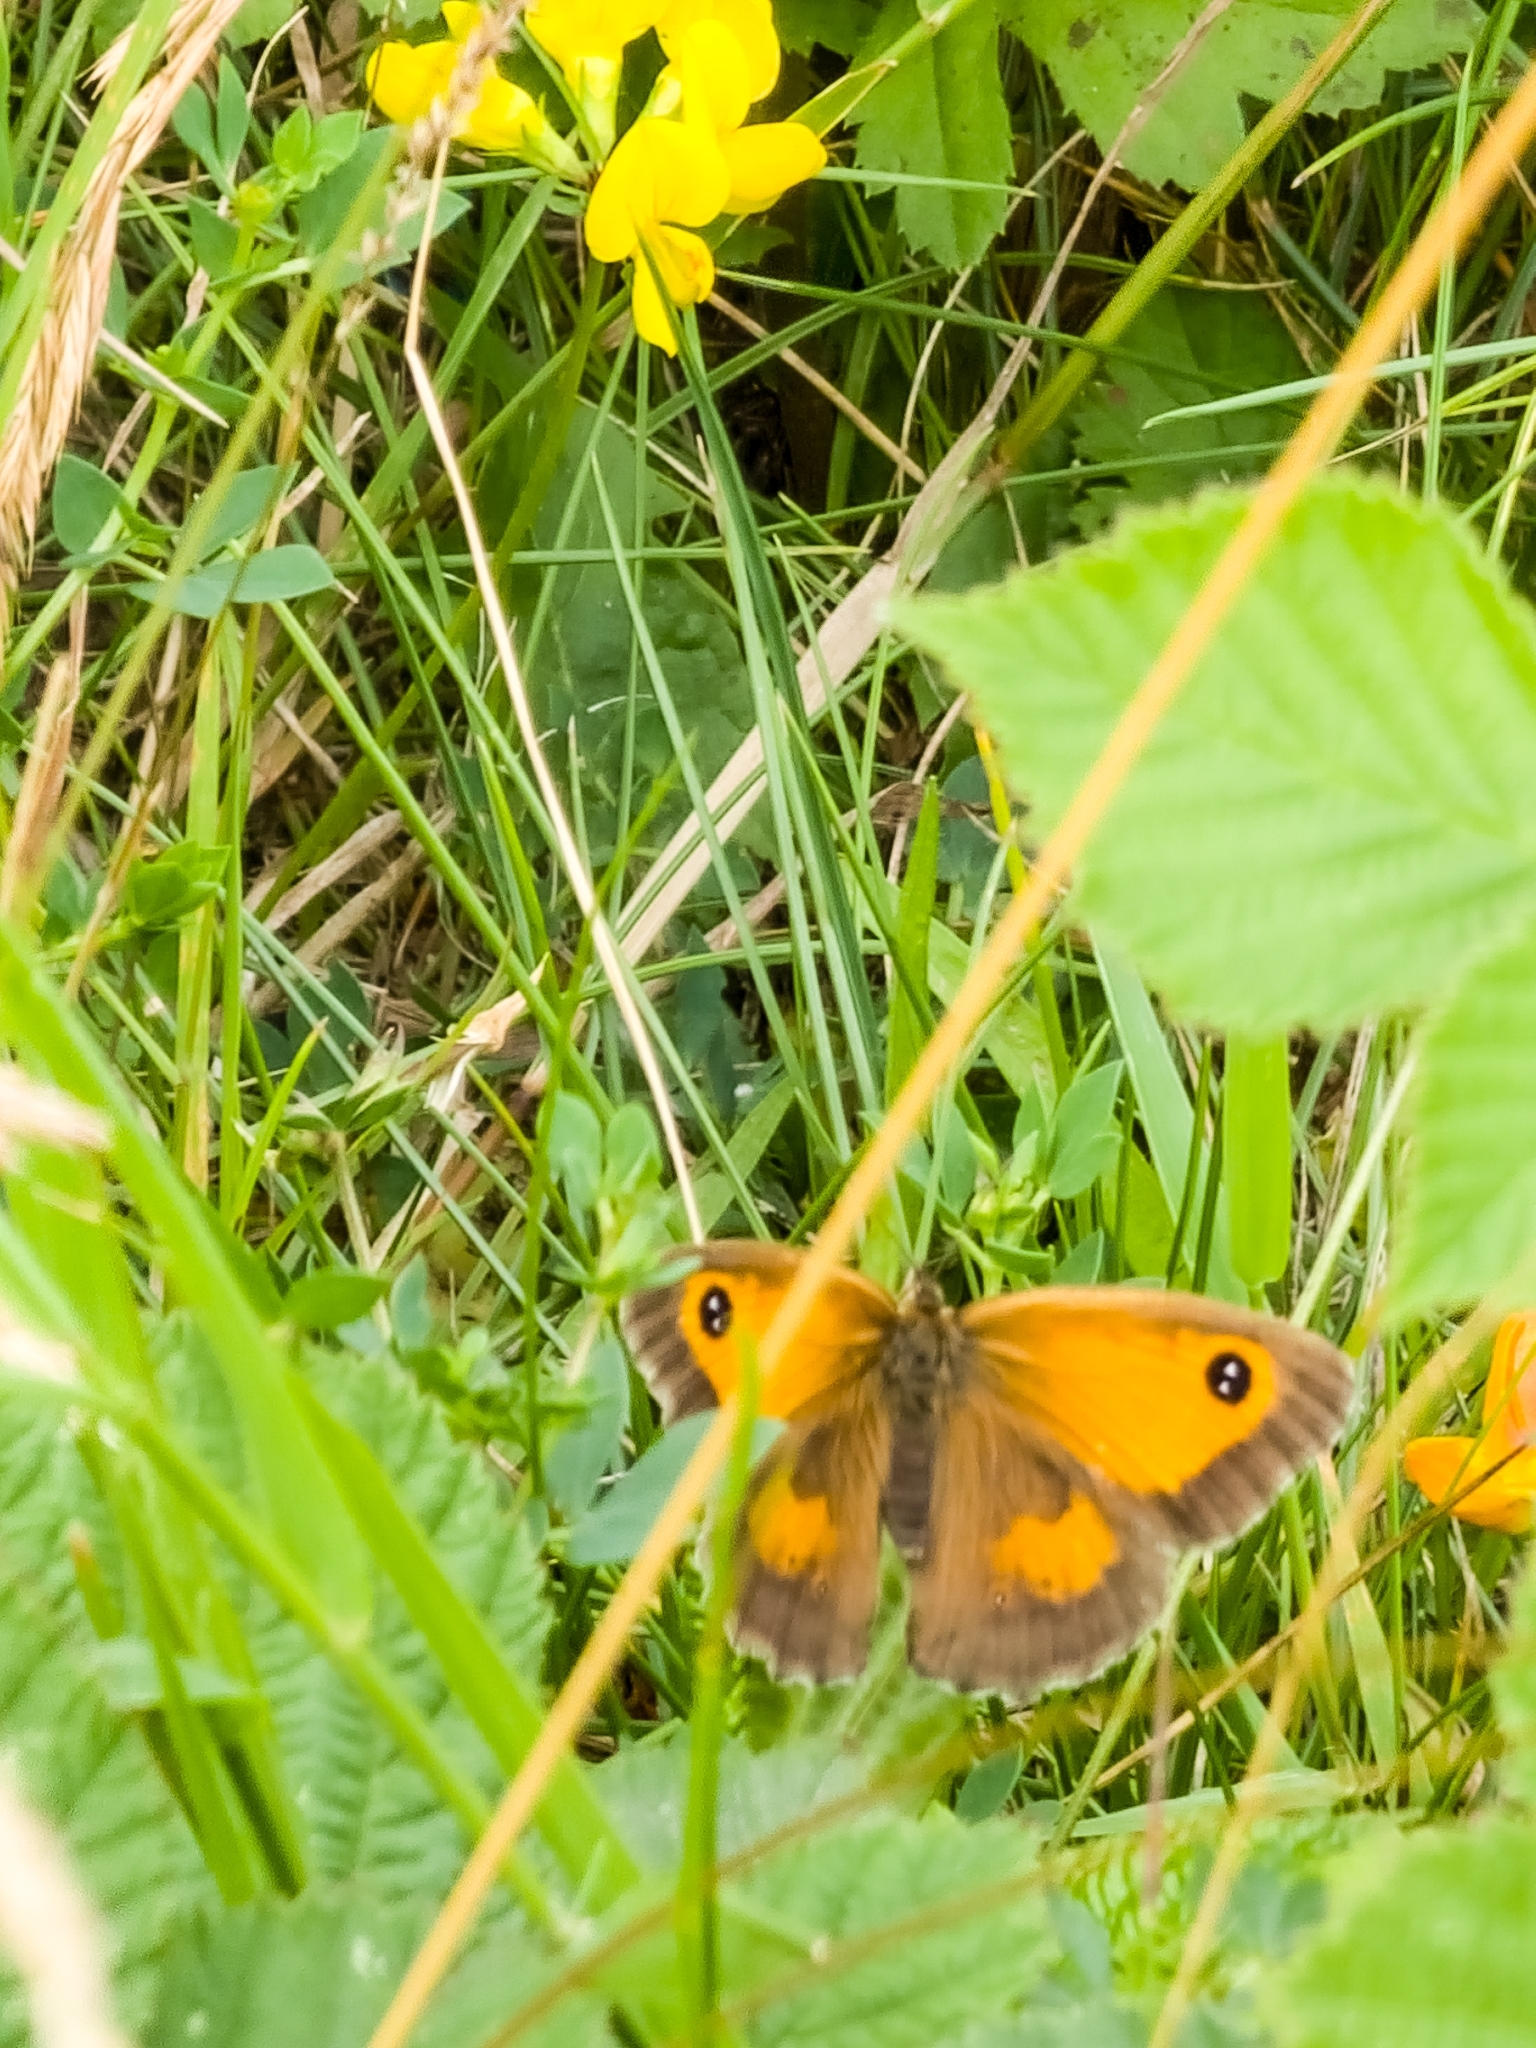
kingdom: Animalia
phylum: Arthropoda
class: Insecta
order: Lepidoptera
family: Nymphalidae
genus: Pyronia
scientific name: Pyronia tithonus
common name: Gatekeeper
